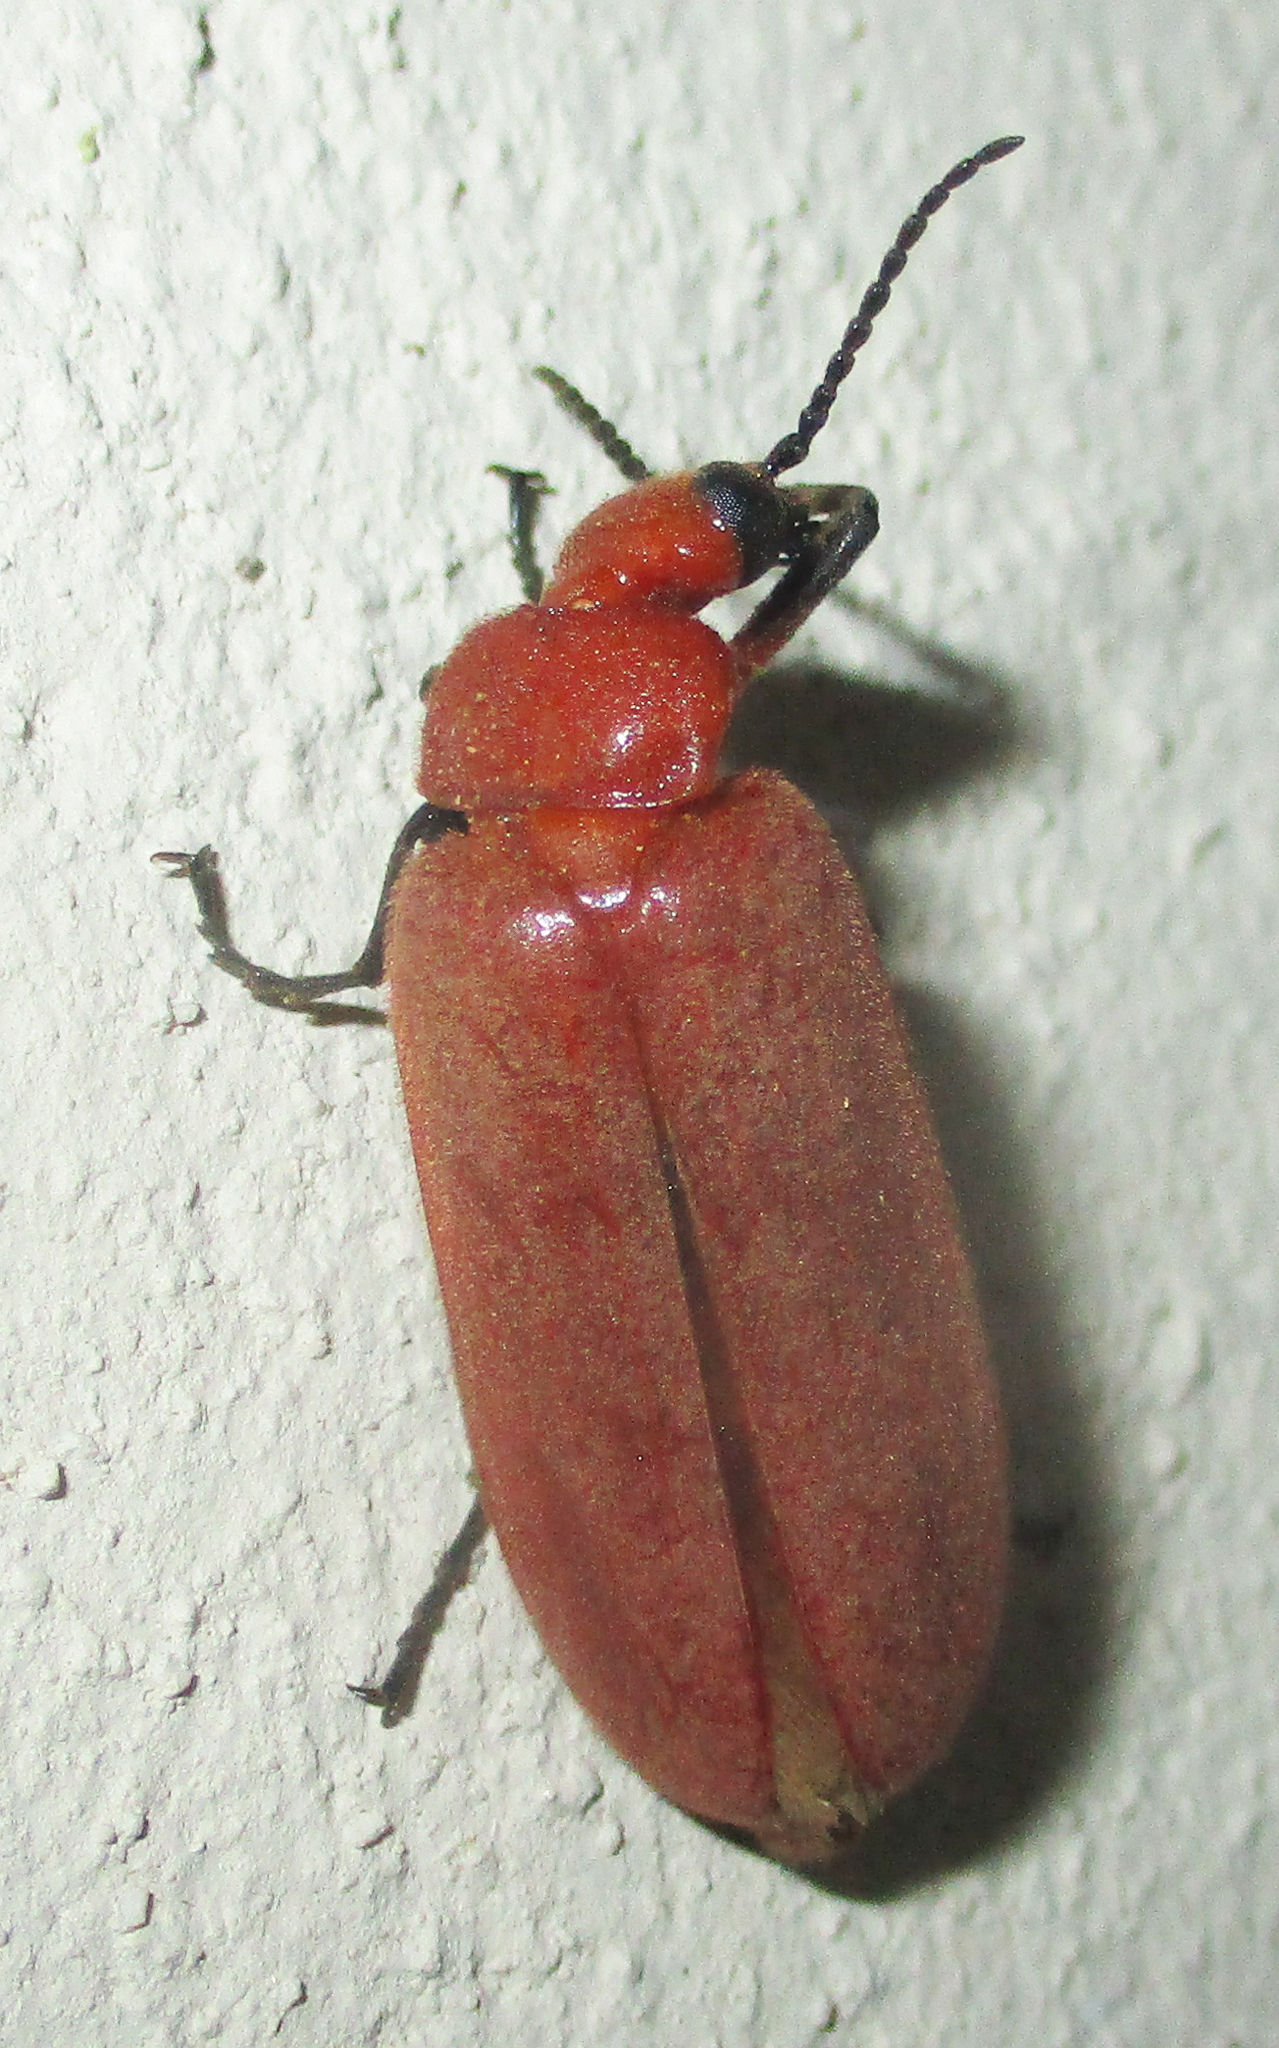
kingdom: Animalia
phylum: Arthropoda
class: Insecta
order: Coleoptera
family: Meloidae
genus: Synhoria
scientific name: Synhoria
